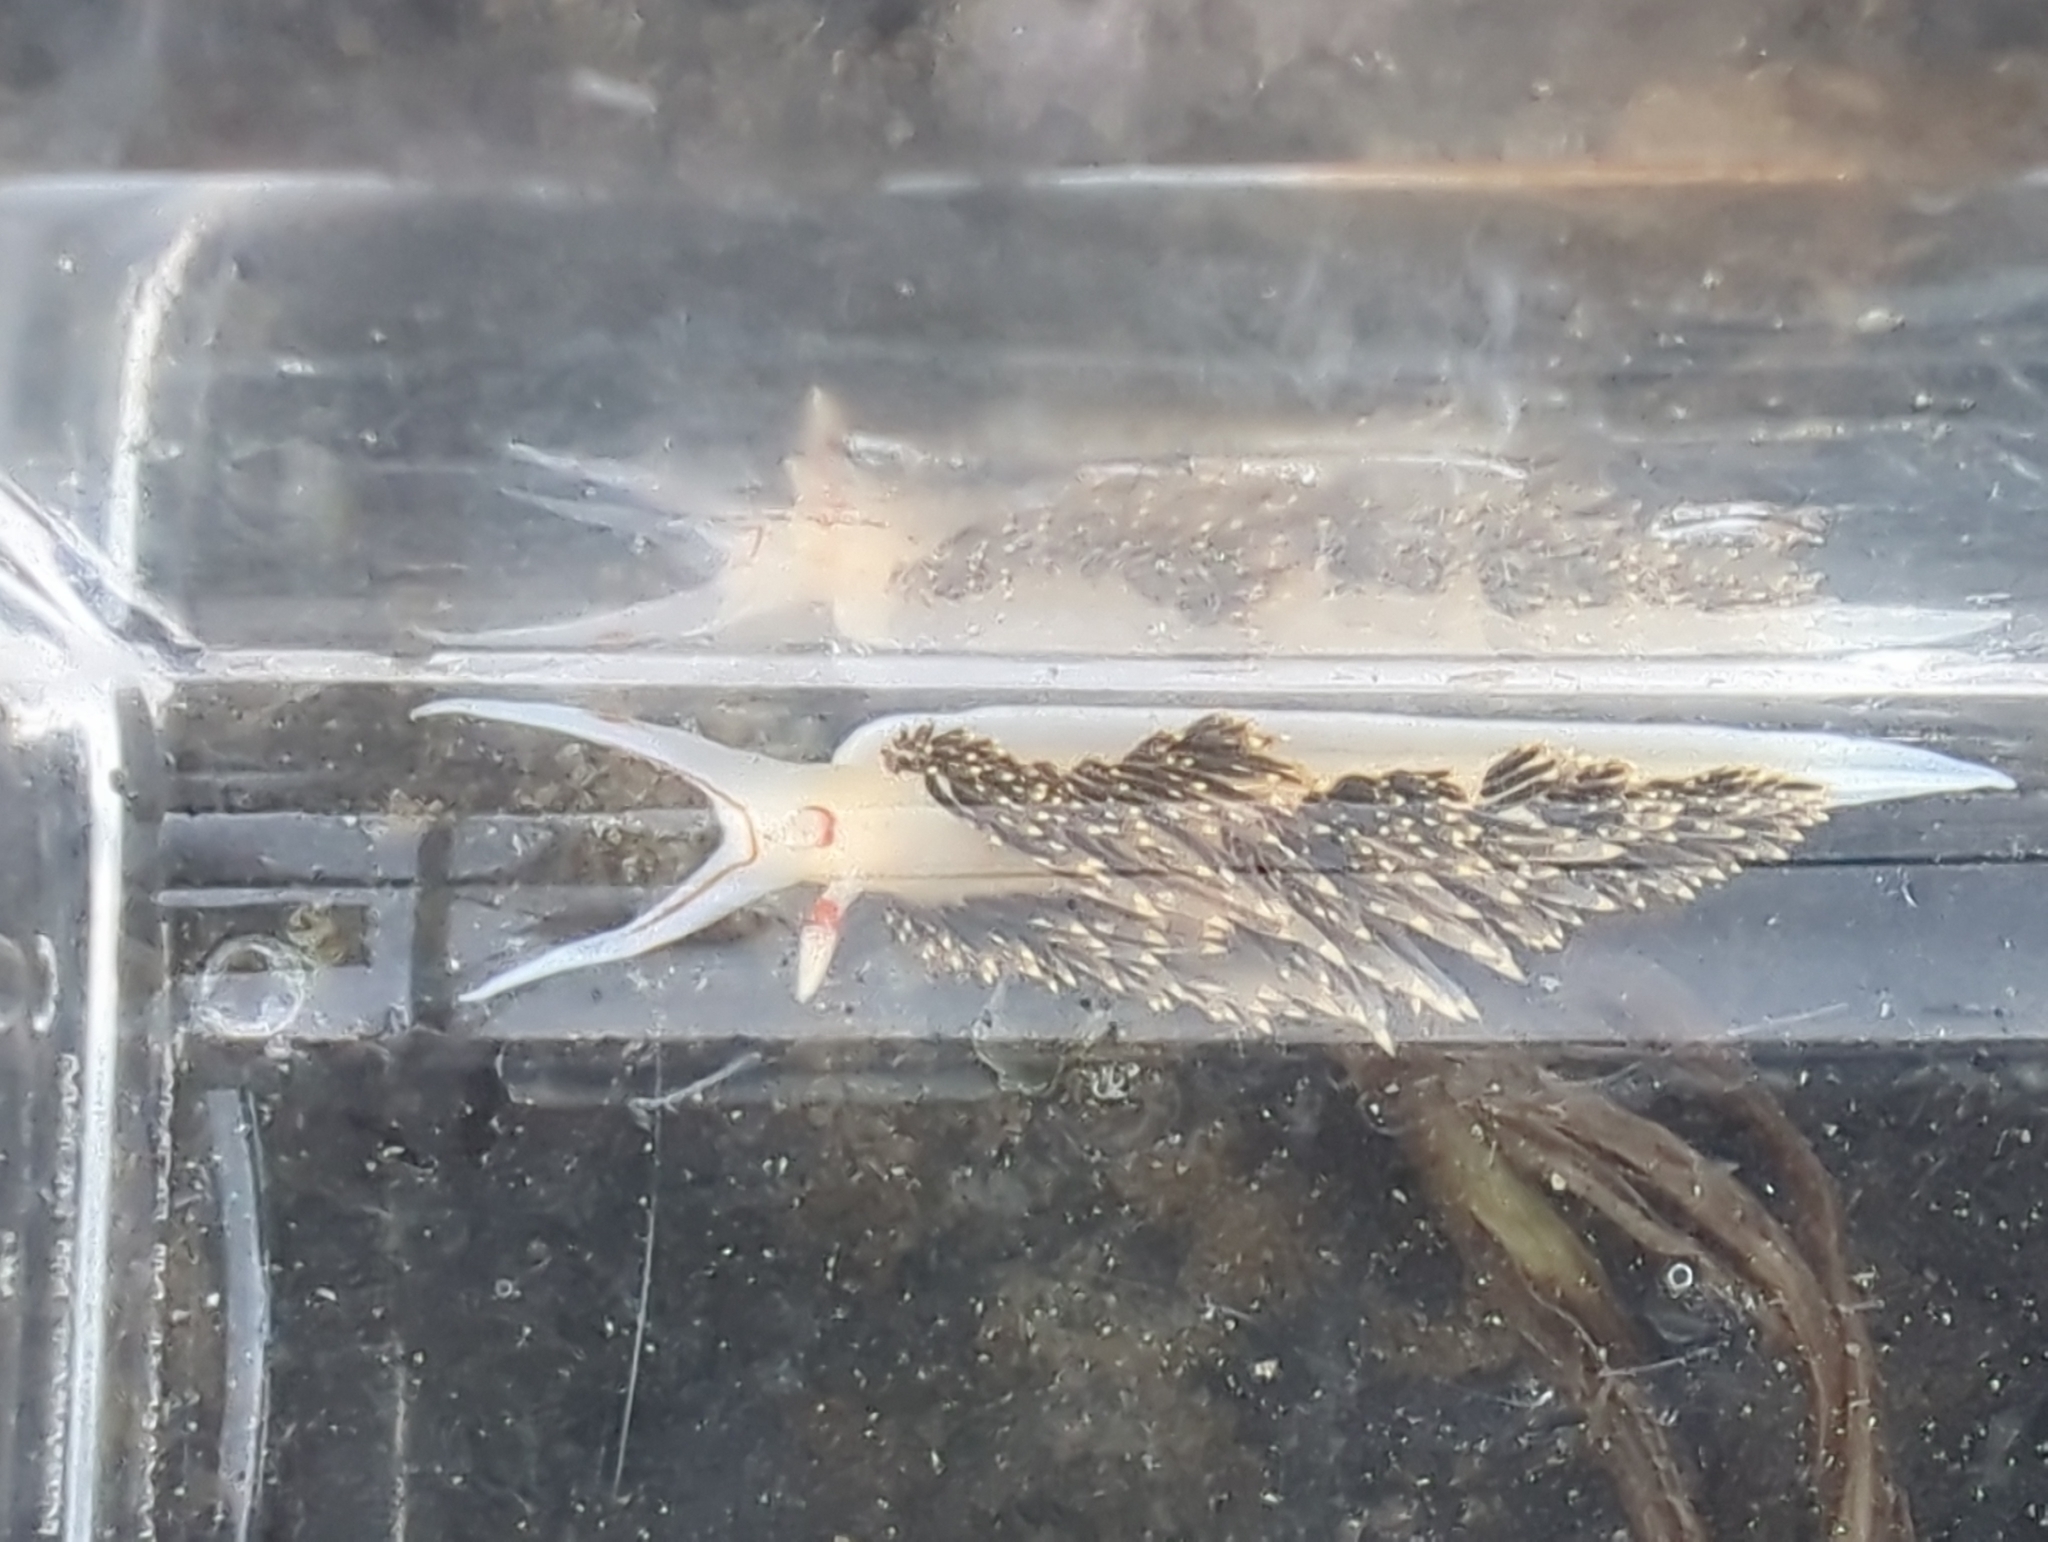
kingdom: Animalia
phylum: Mollusca
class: Gastropoda
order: Nudibranchia
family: Facelinidae
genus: Phidiana
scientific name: Phidiana hiltoni
